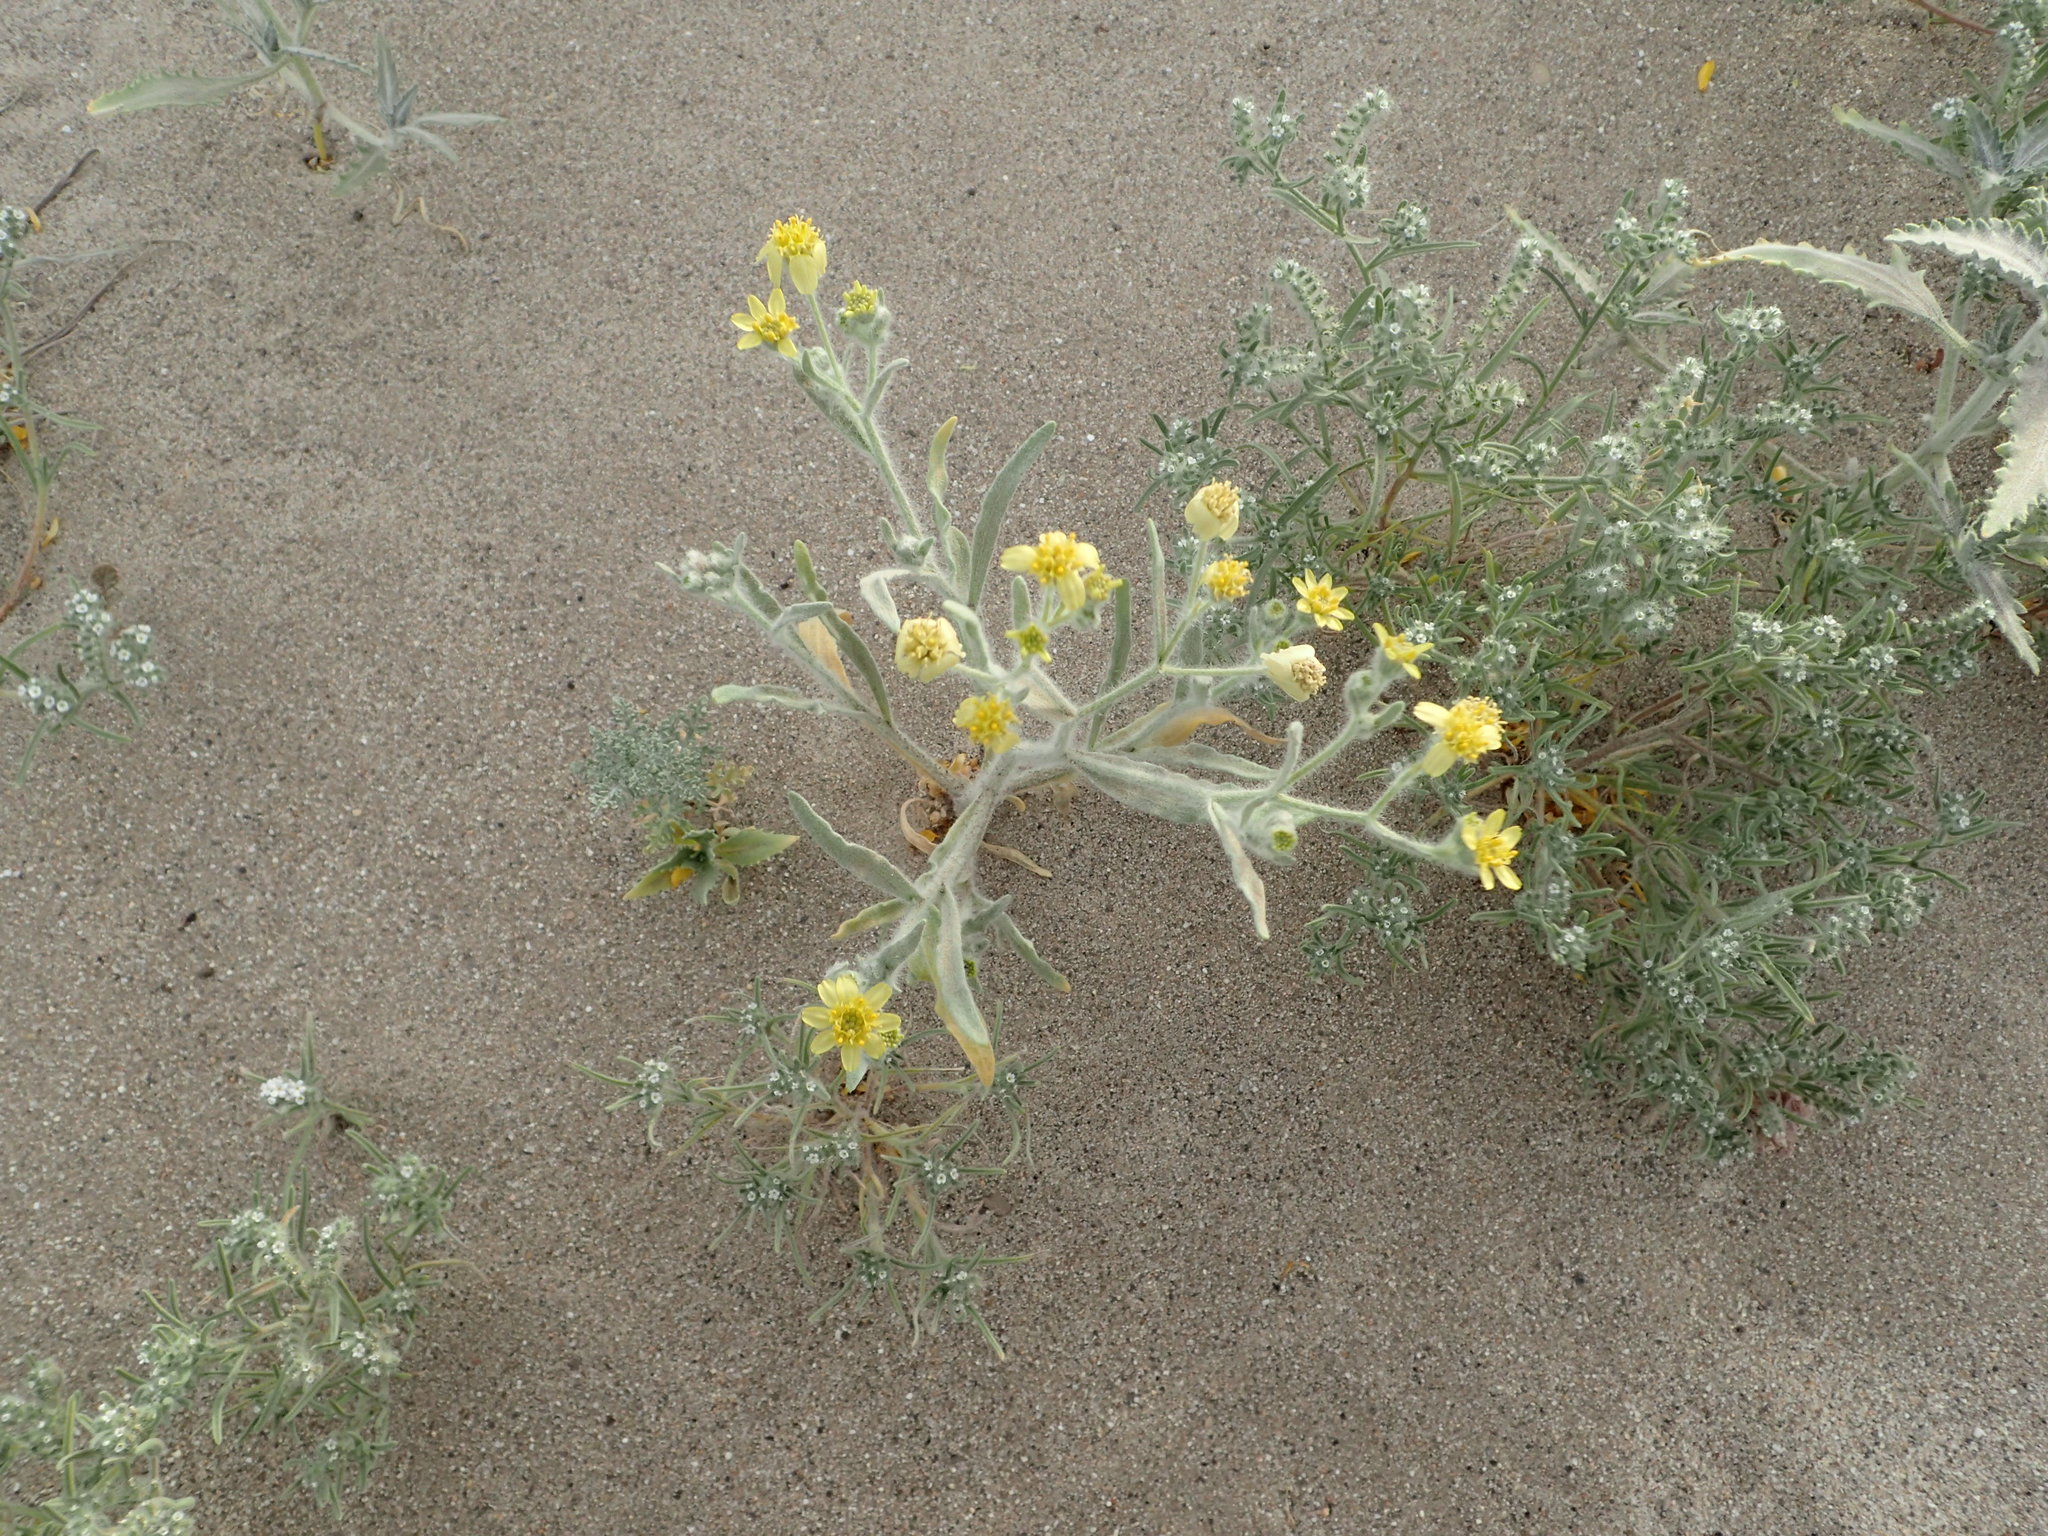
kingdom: Plantae
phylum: Tracheophyta
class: Magnoliopsida
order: Asterales
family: Asteraceae
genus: Baileya
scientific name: Baileya pauciradiata
